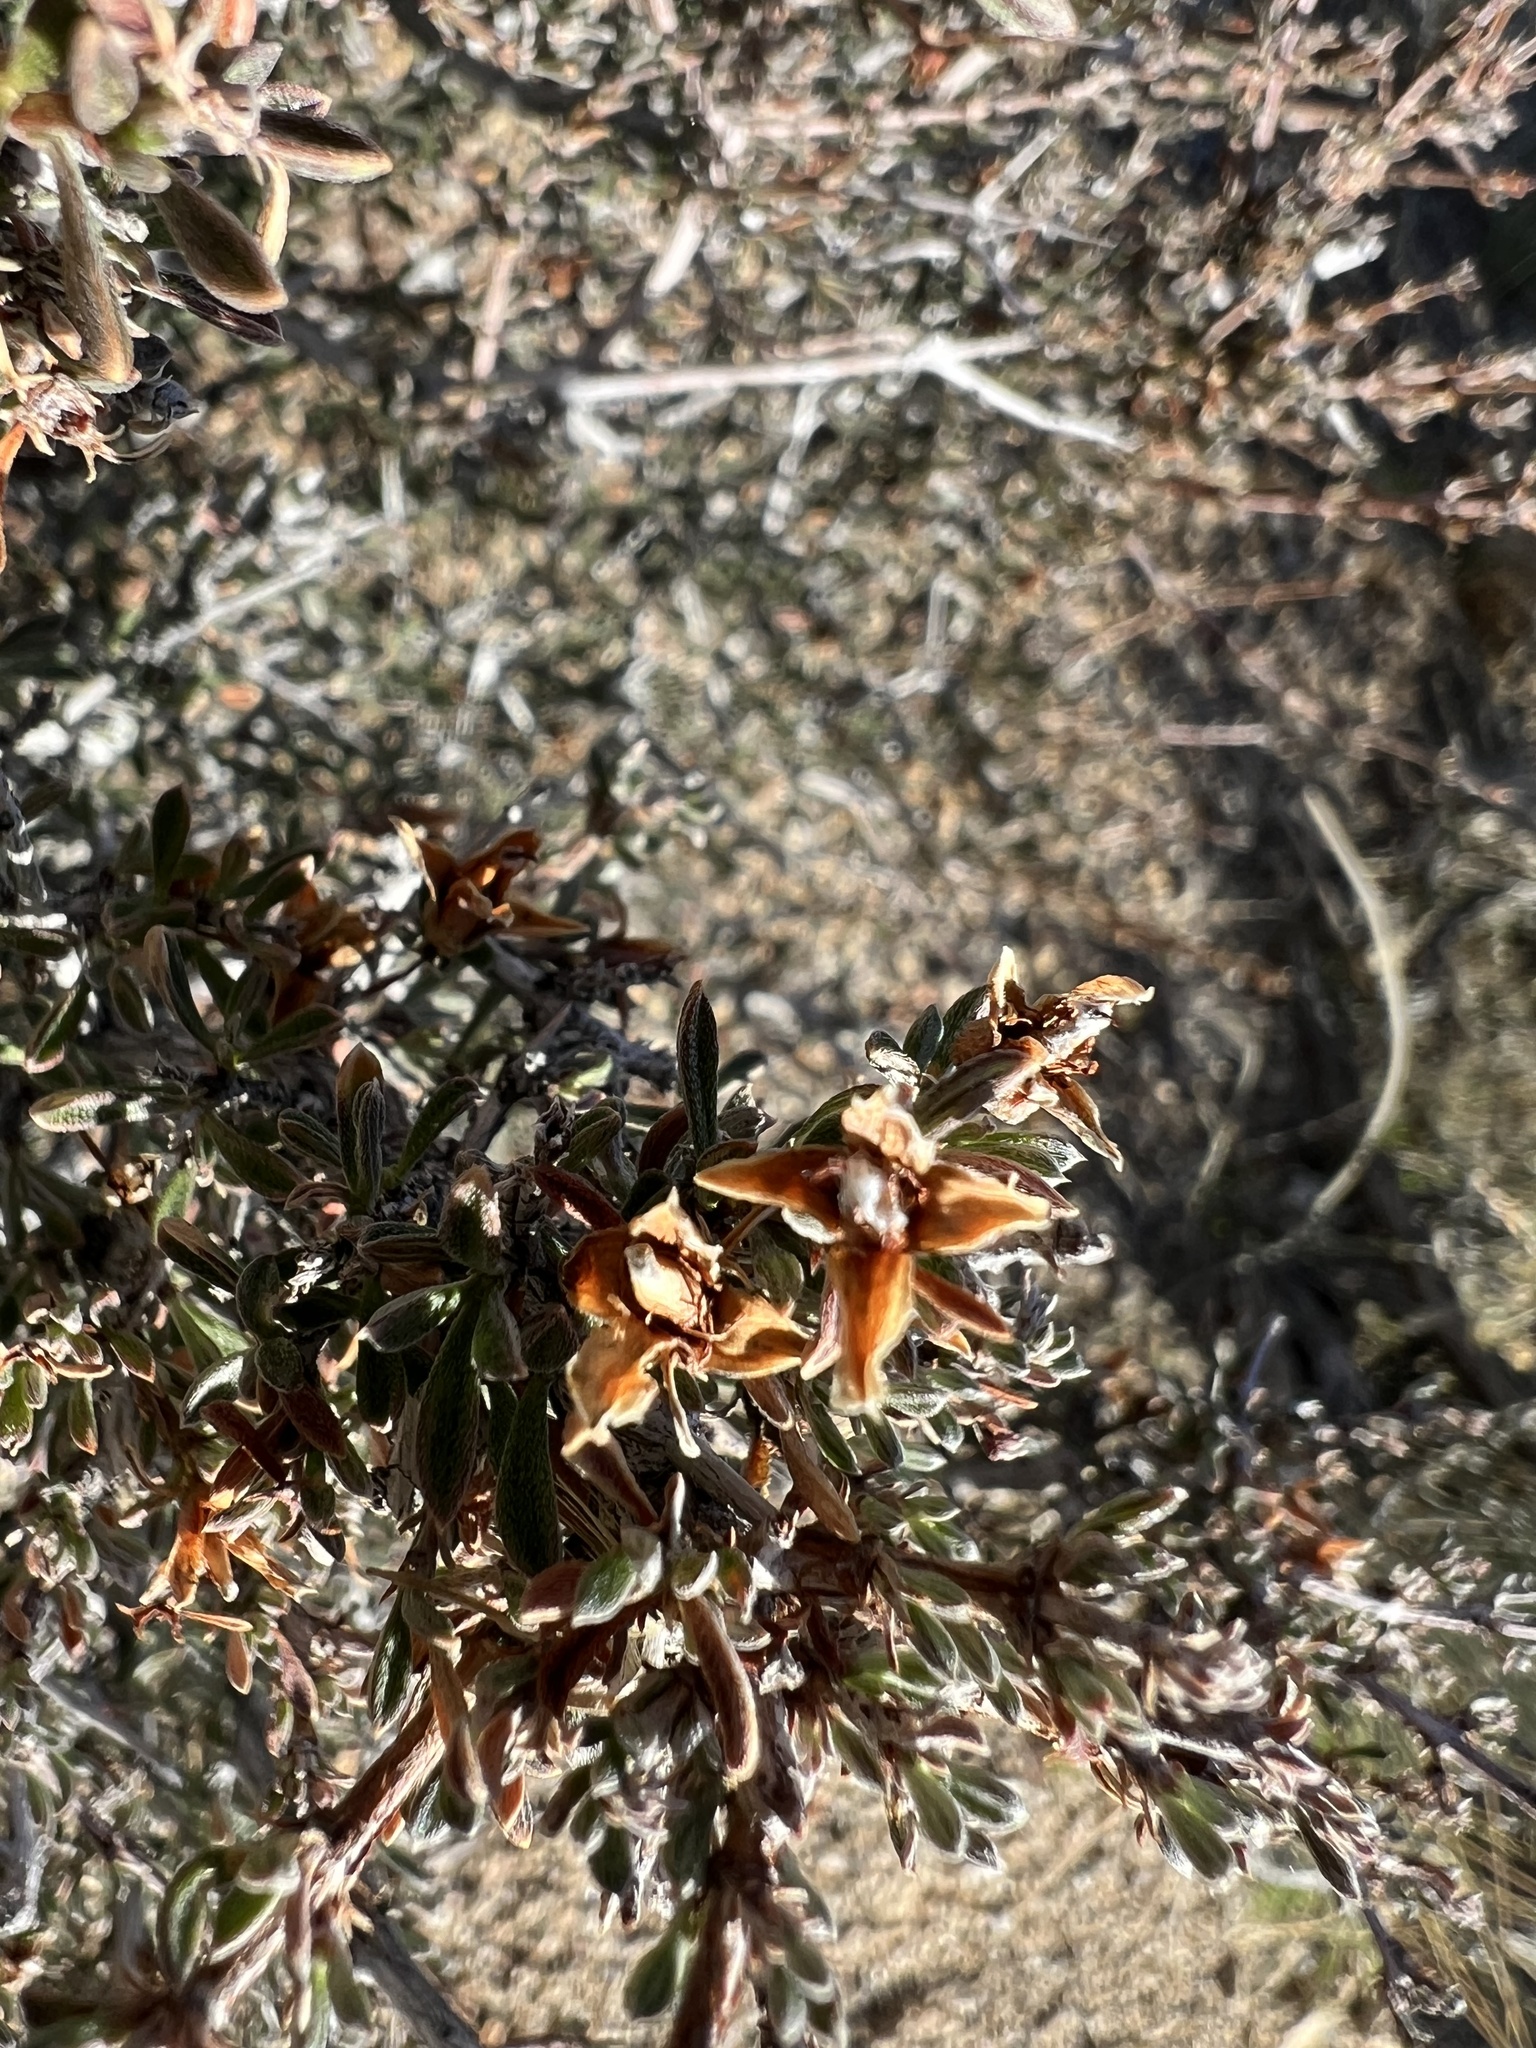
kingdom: Plantae
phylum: Tracheophyta
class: Magnoliopsida
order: Rosales
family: Rosaceae
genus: Coleogyne
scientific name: Coleogyne ramosissima
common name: Blackbrush
